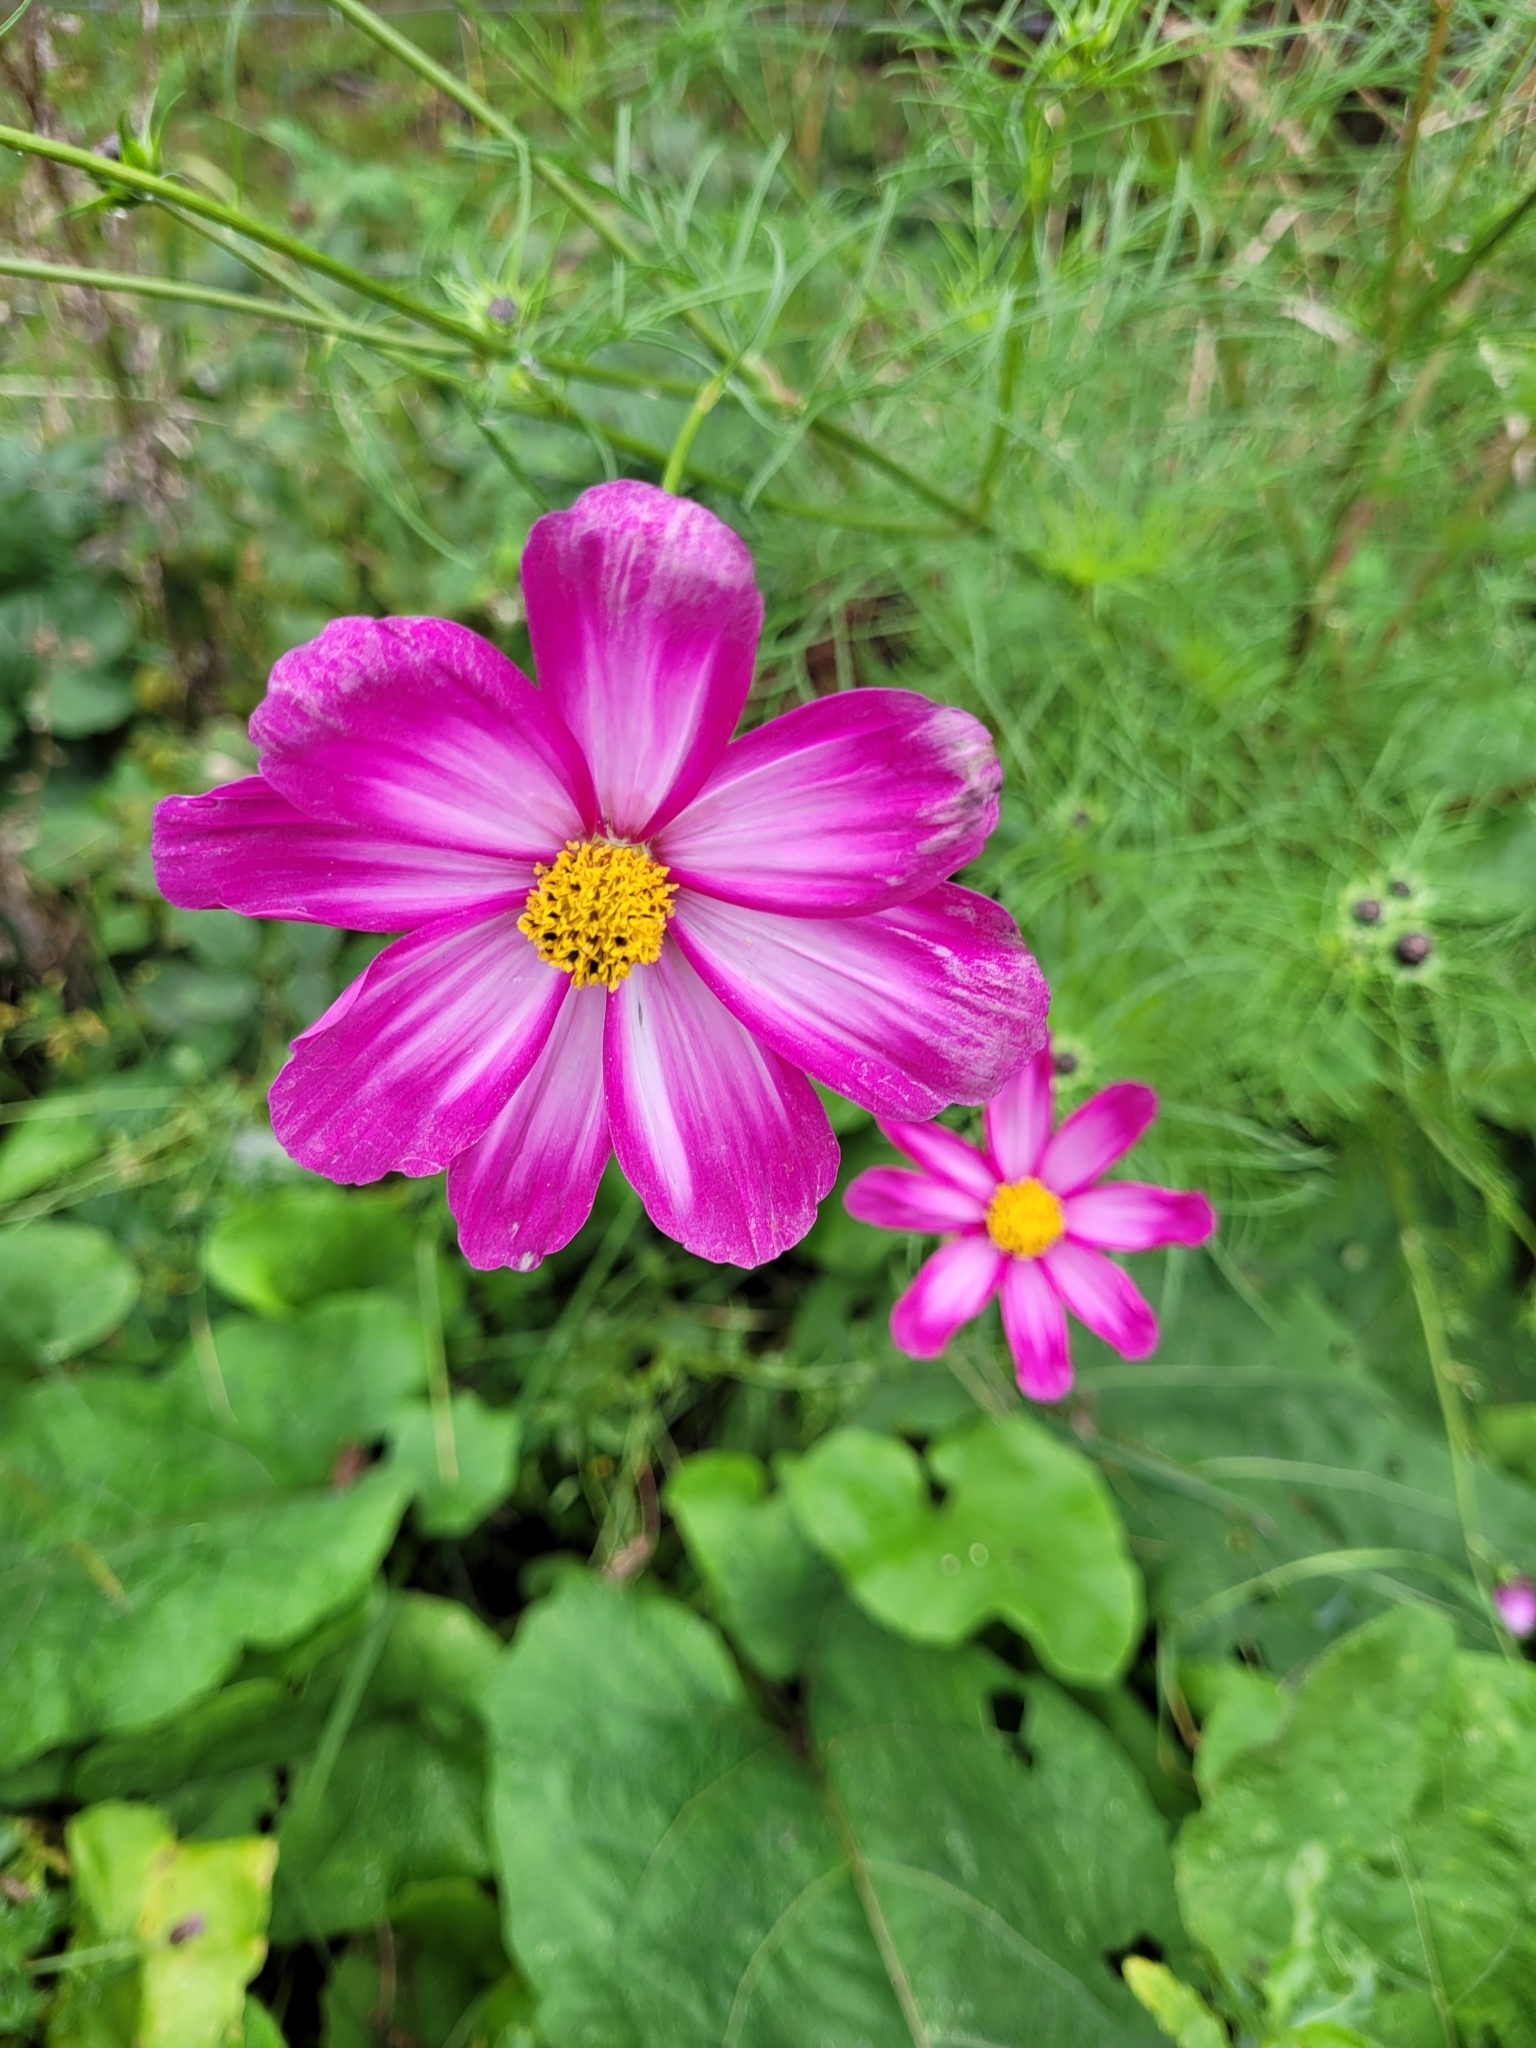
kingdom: Plantae
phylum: Tracheophyta
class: Magnoliopsida
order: Asterales
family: Asteraceae
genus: Cosmos
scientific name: Cosmos bipinnatus
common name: Garden cosmos
